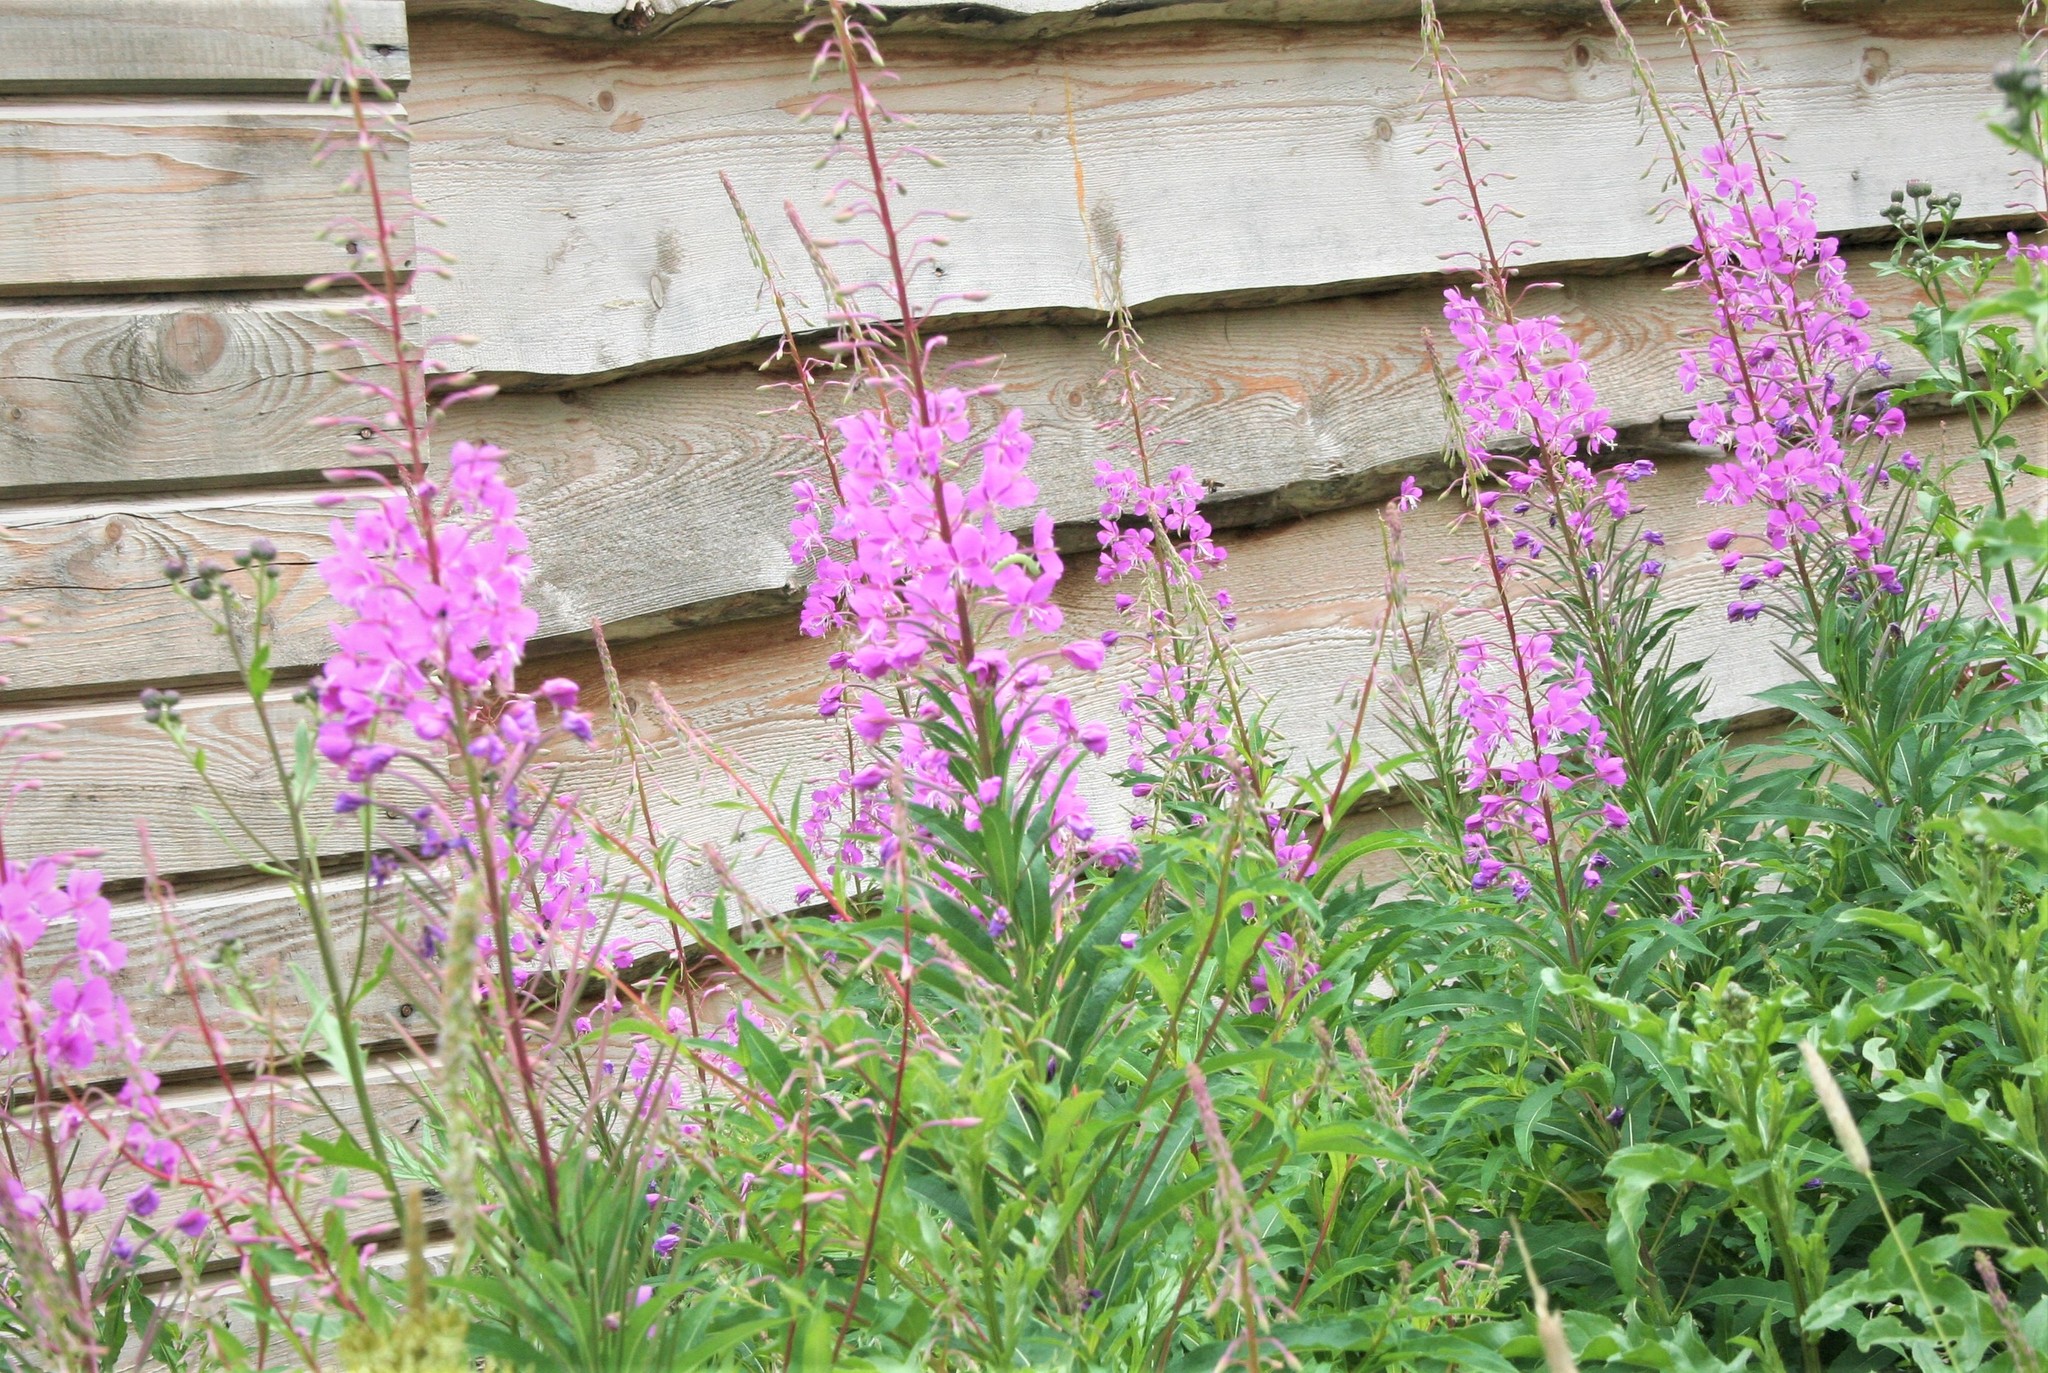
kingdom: Plantae
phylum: Tracheophyta
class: Magnoliopsida
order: Myrtales
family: Onagraceae
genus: Chamaenerion
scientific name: Chamaenerion angustifolium
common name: Fireweed
